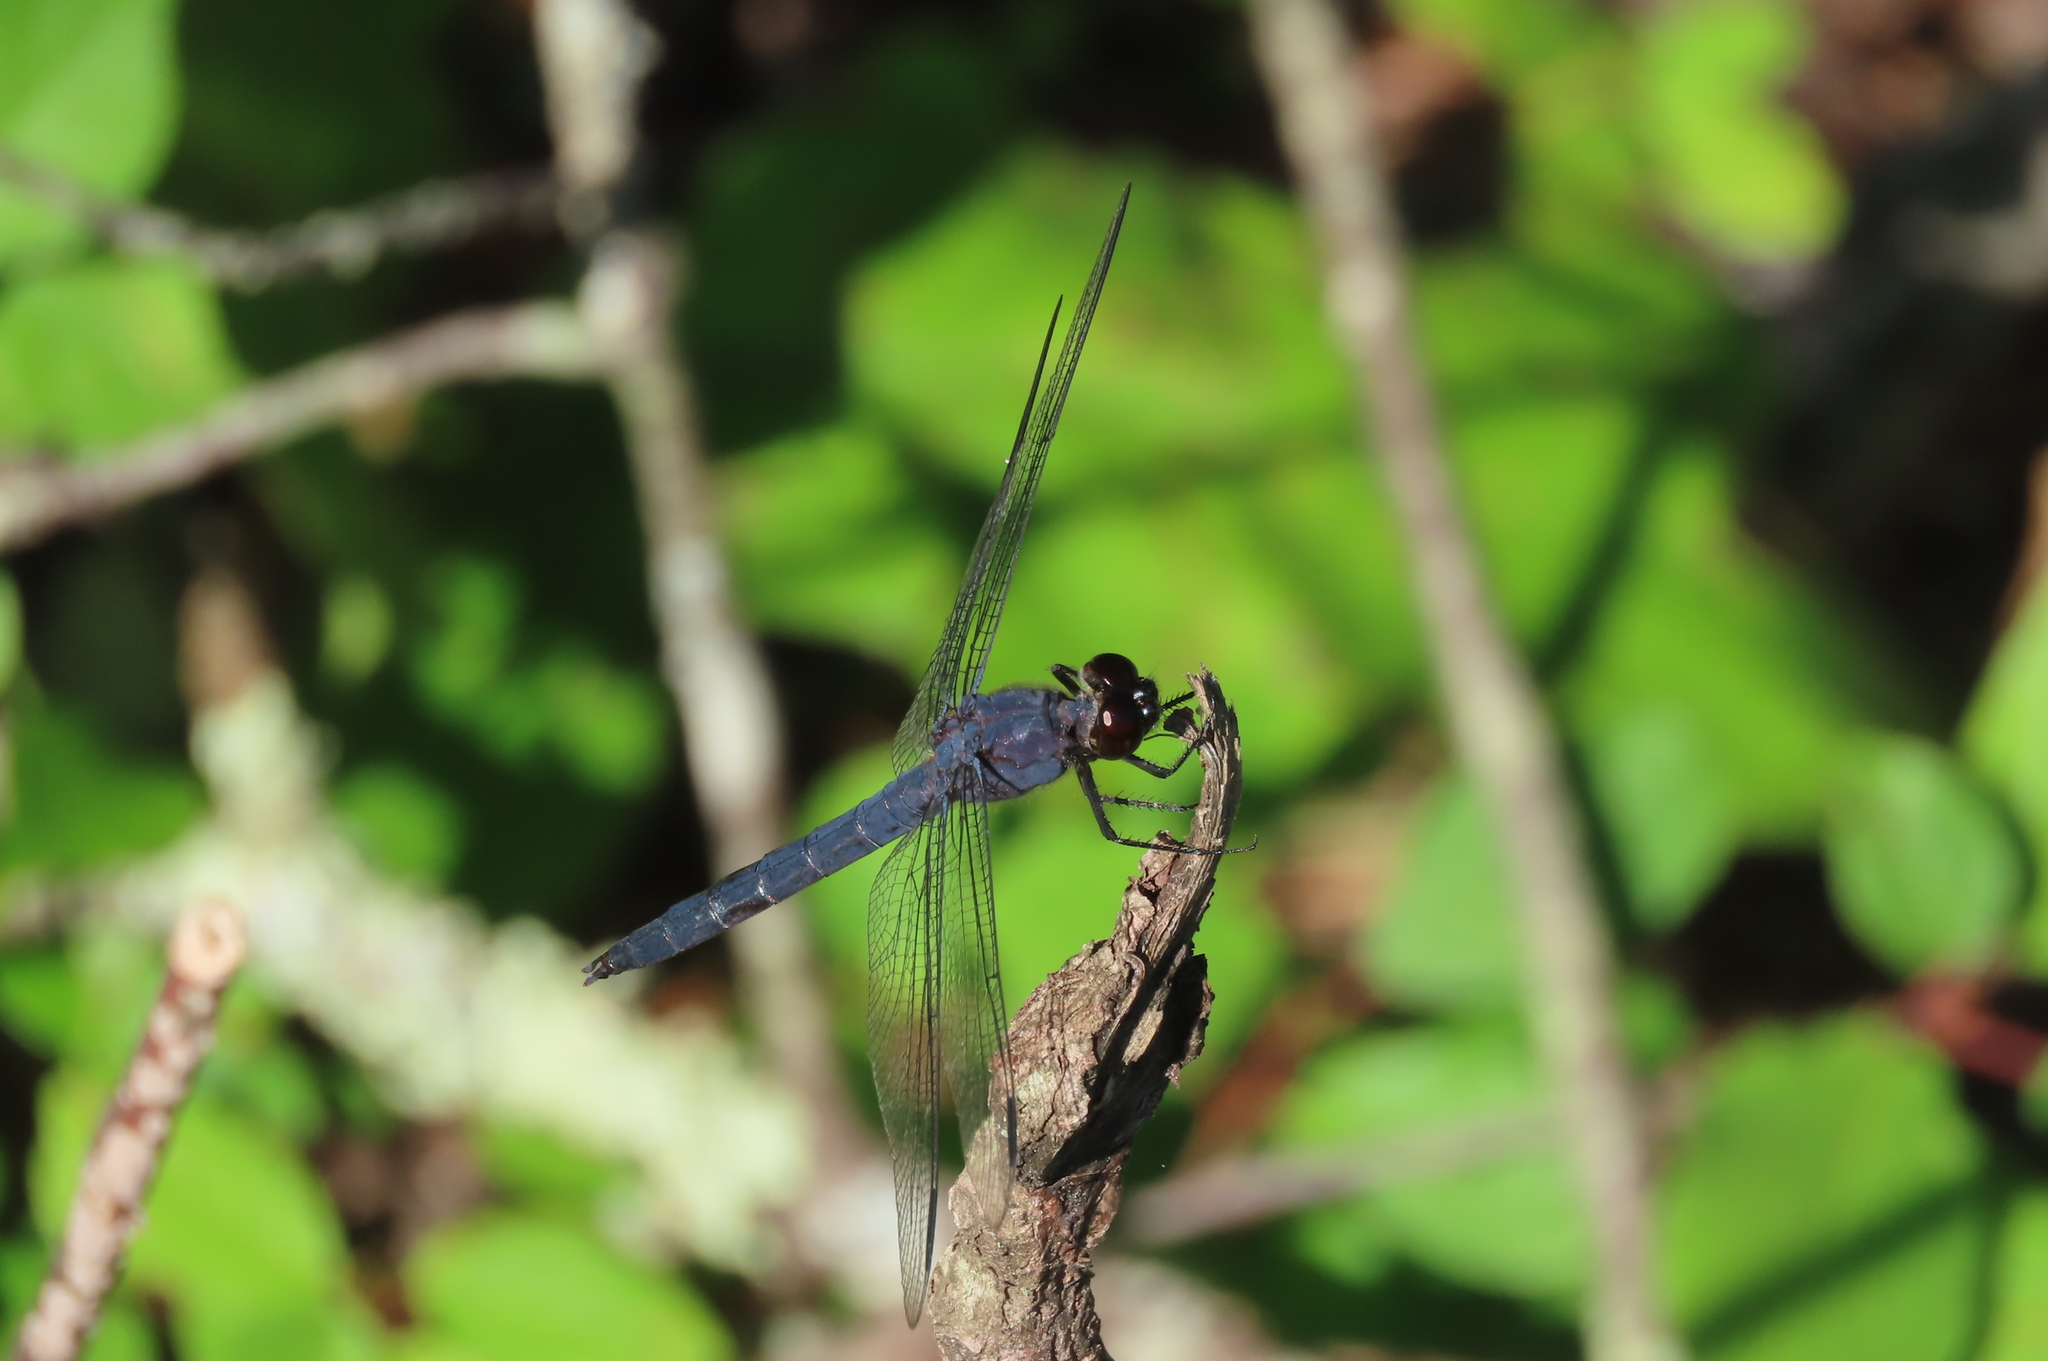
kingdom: Animalia
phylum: Arthropoda
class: Insecta
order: Odonata
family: Libellulidae
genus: Libellula
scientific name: Libellula incesta
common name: Slaty skimmer
